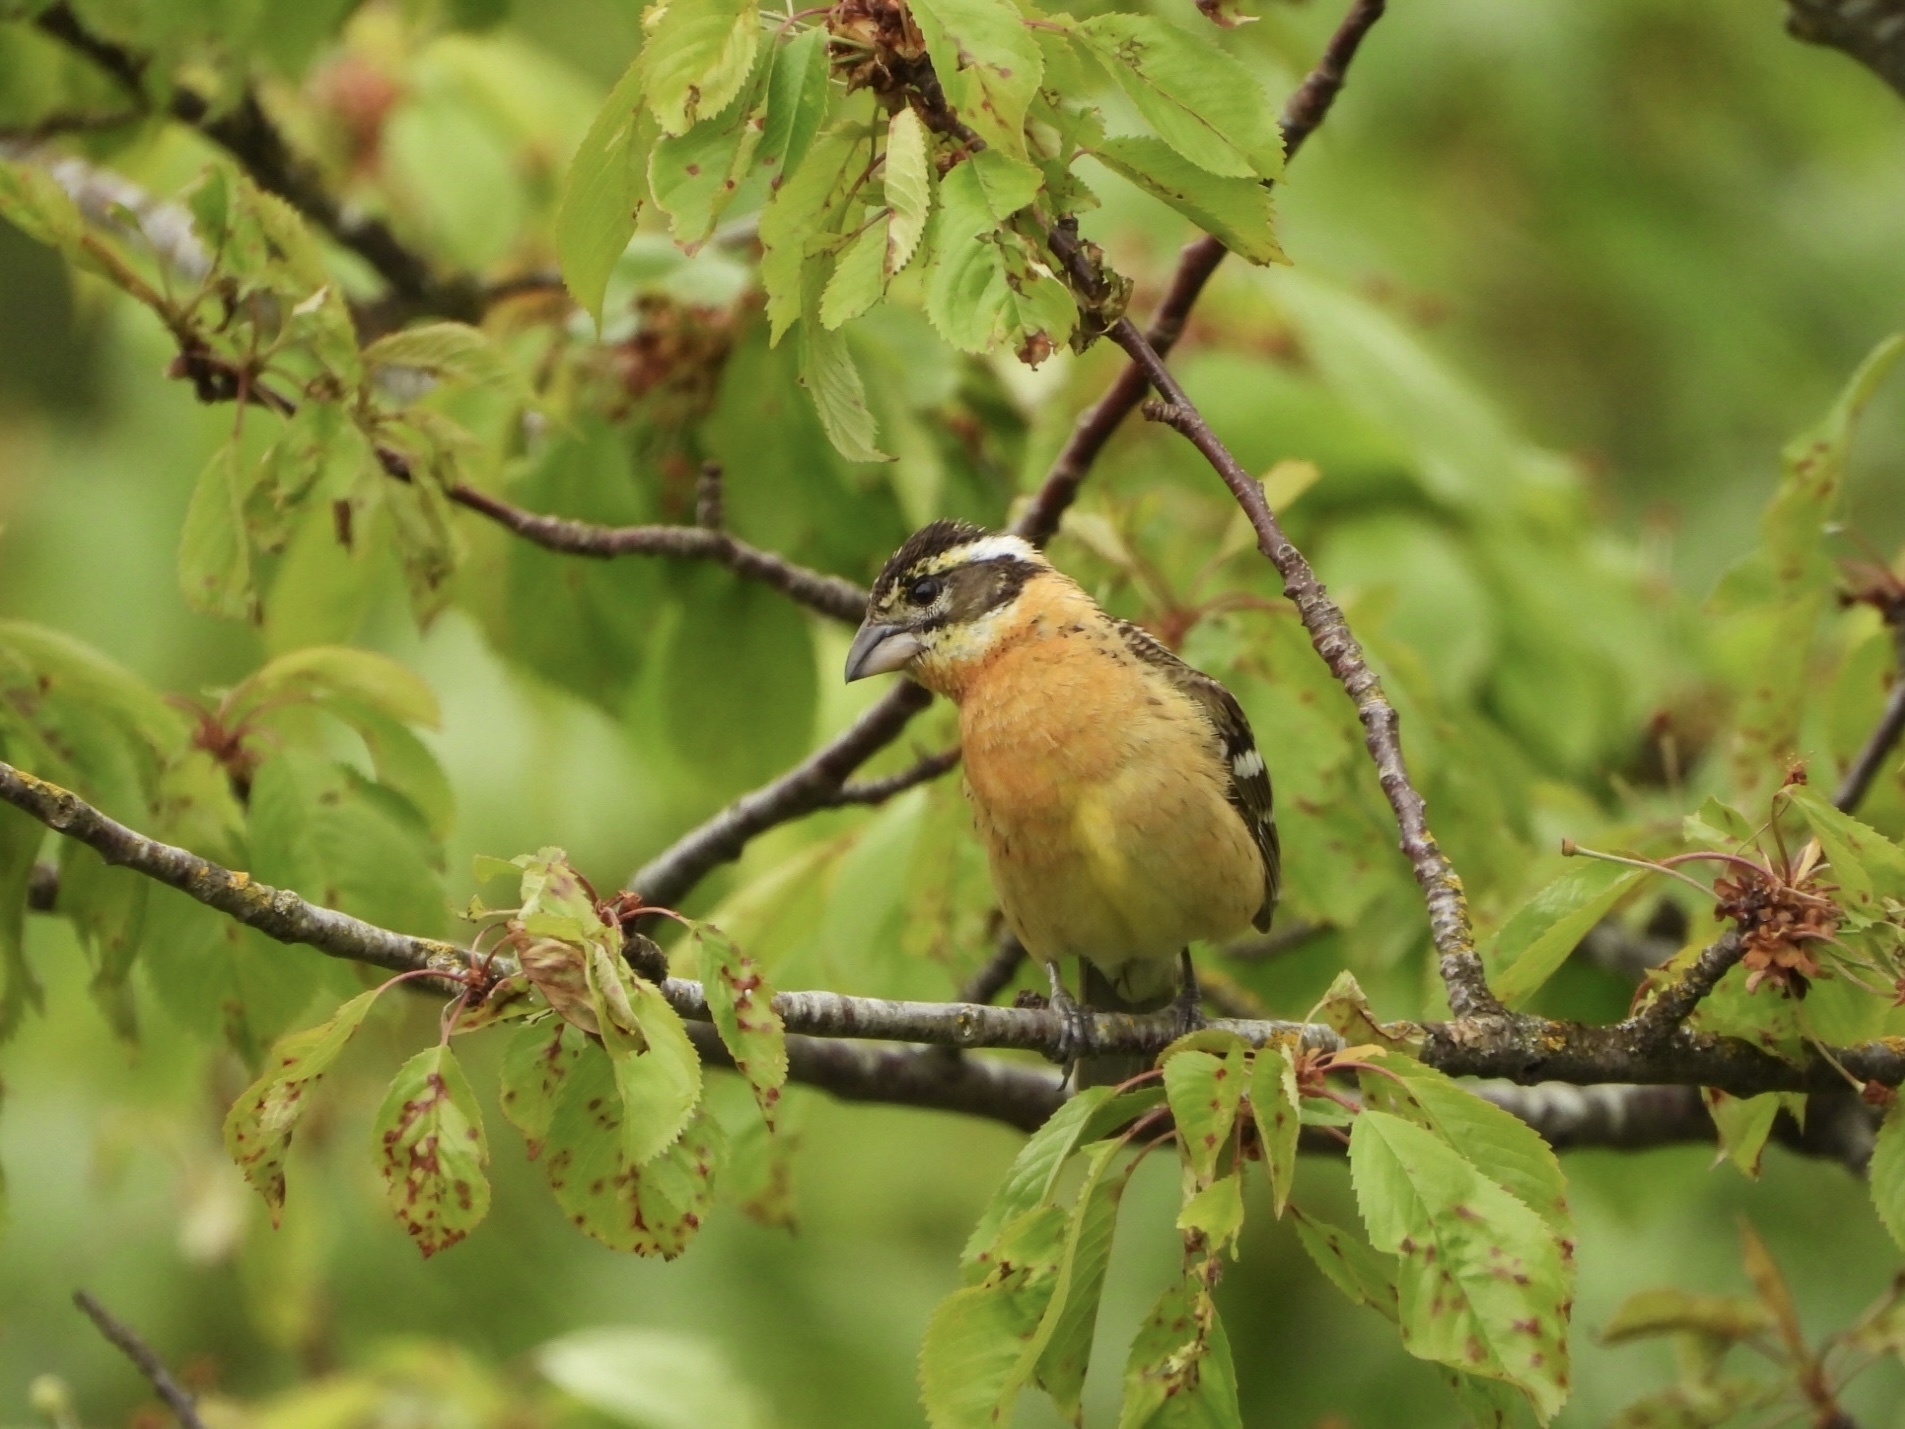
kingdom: Animalia
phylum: Chordata
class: Aves
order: Passeriformes
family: Cardinalidae
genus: Pheucticus
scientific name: Pheucticus melanocephalus
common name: Black-headed grosbeak
